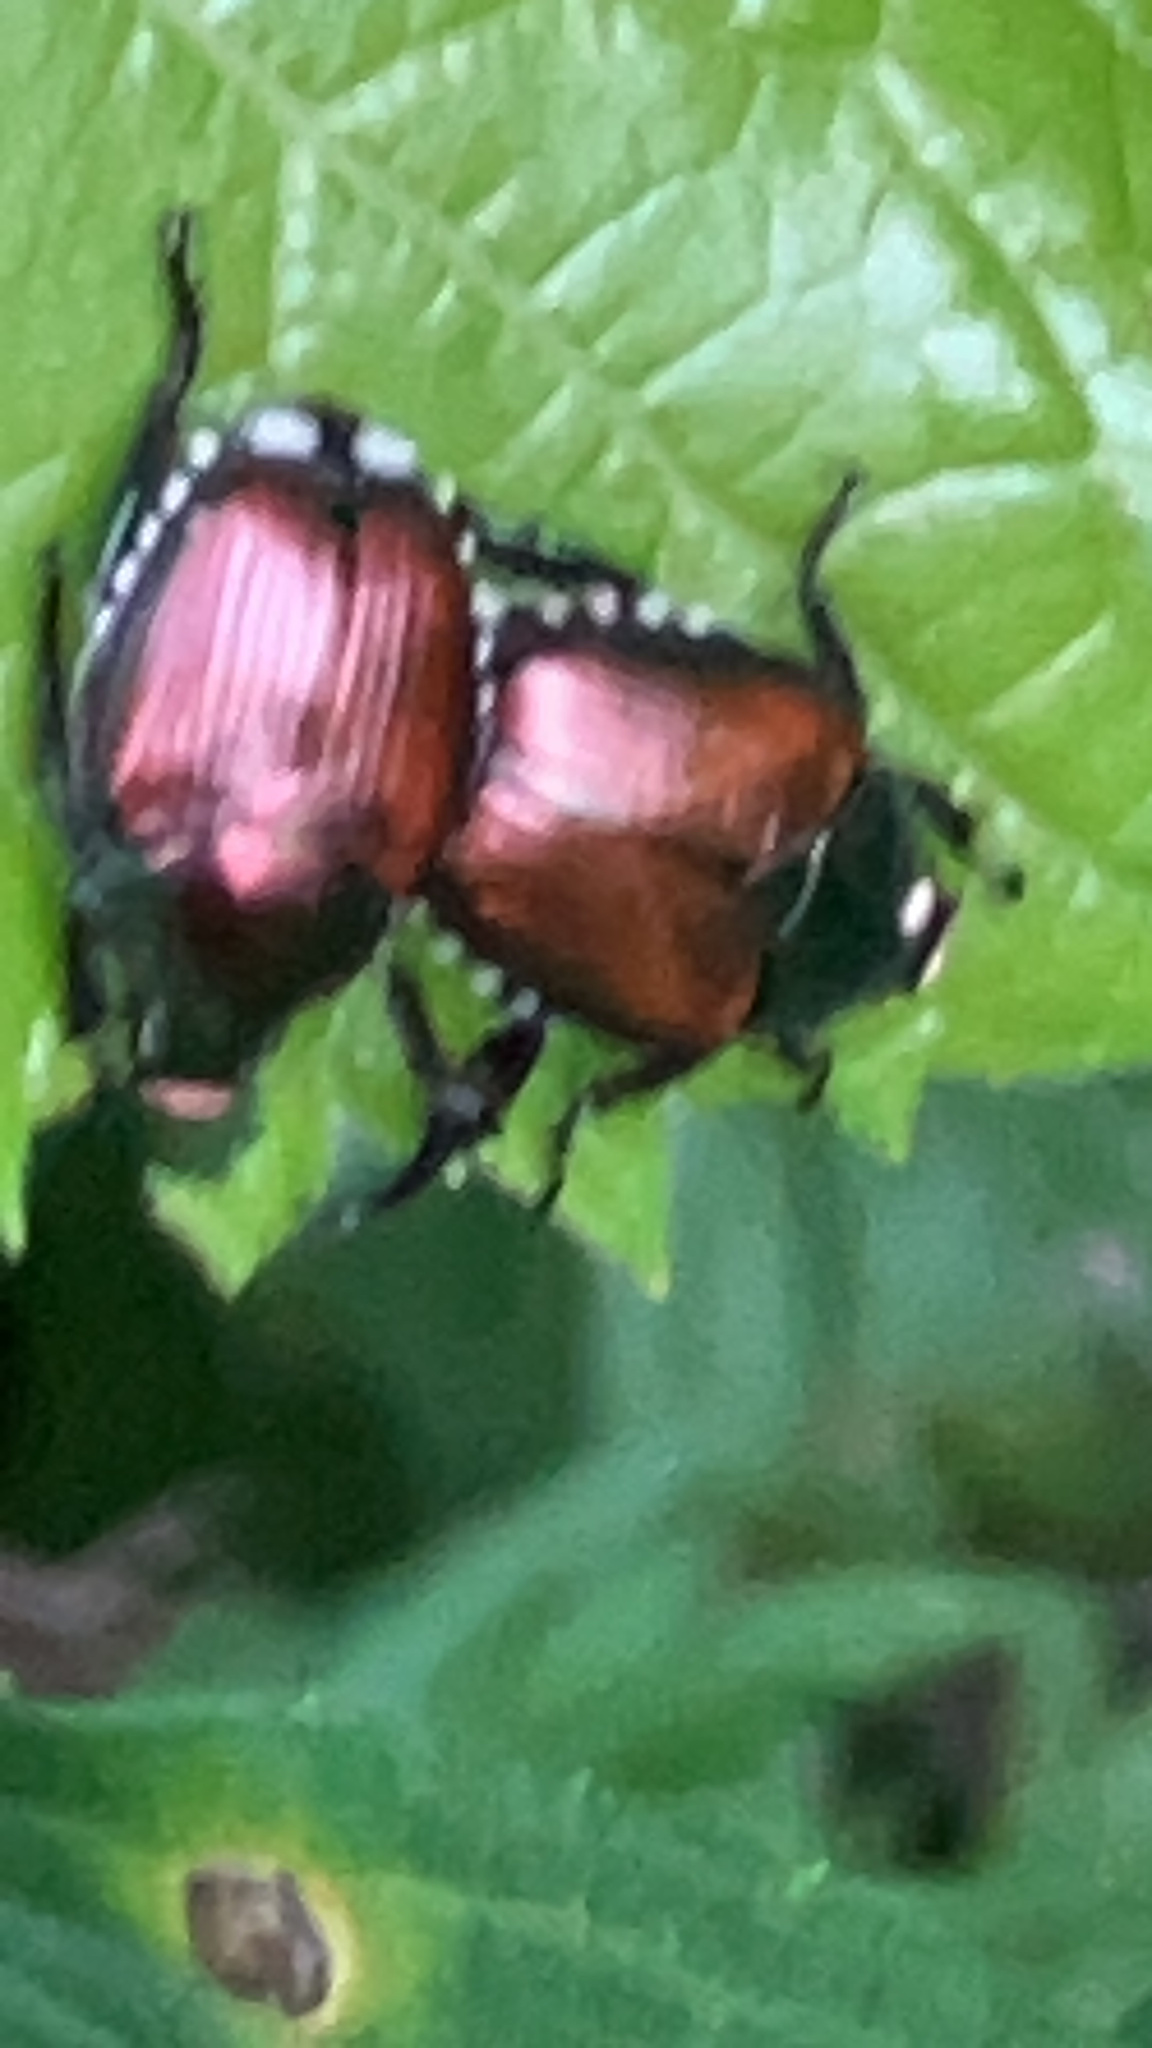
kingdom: Animalia
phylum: Arthropoda
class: Insecta
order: Coleoptera
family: Scarabaeidae
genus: Popillia
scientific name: Popillia japonica
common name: Japanese beetle
